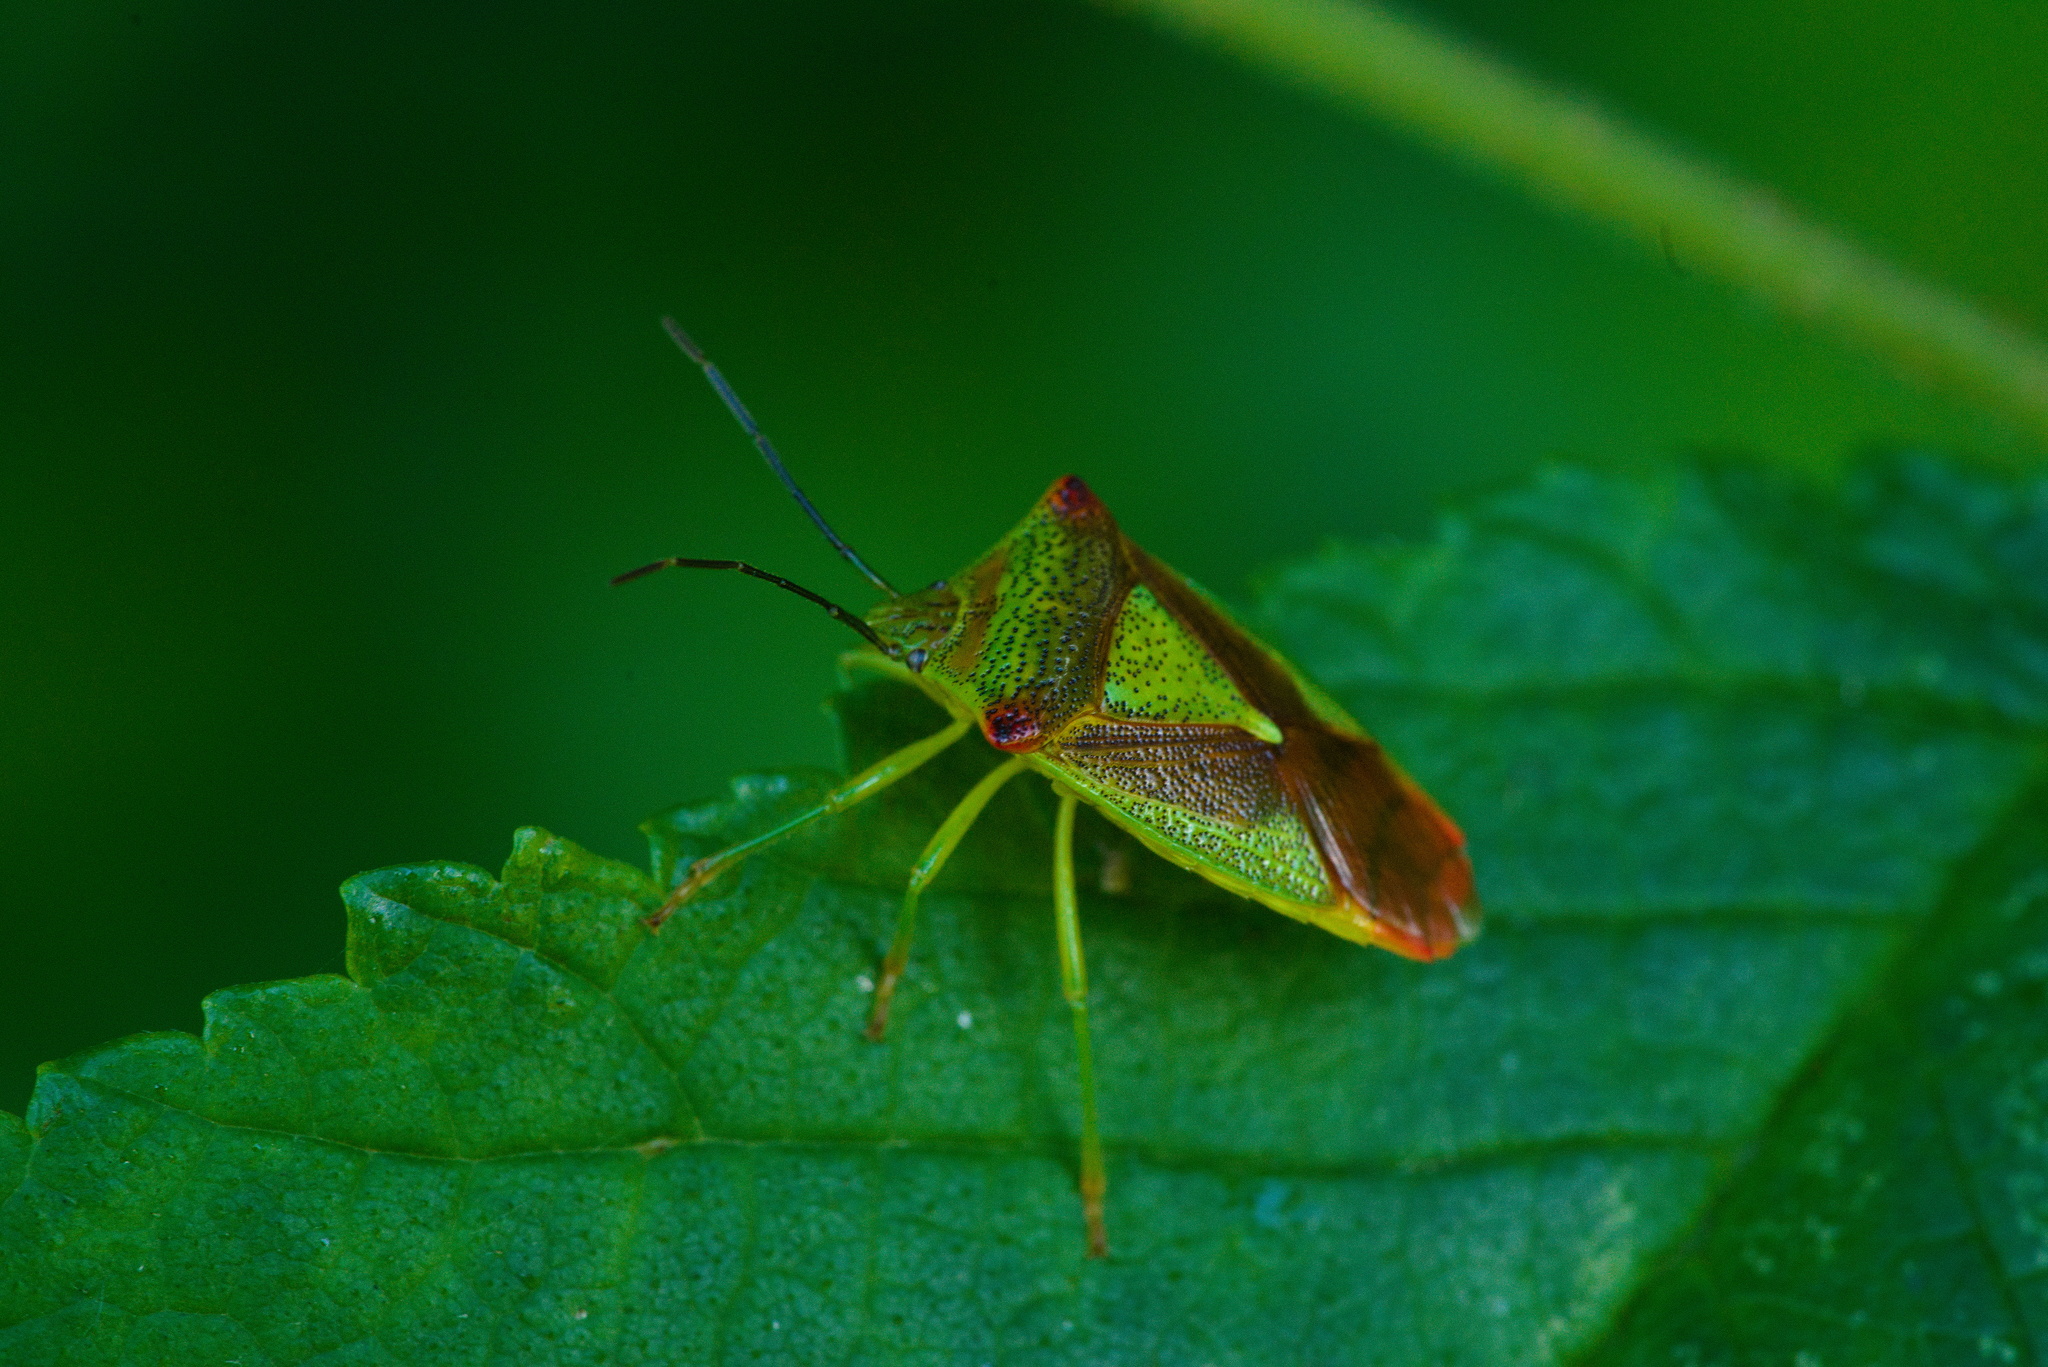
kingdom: Animalia
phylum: Arthropoda
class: Insecta
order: Hemiptera
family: Acanthosomatidae
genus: Acanthosoma
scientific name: Acanthosoma haemorrhoidale
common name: Hawthorn shieldbug
